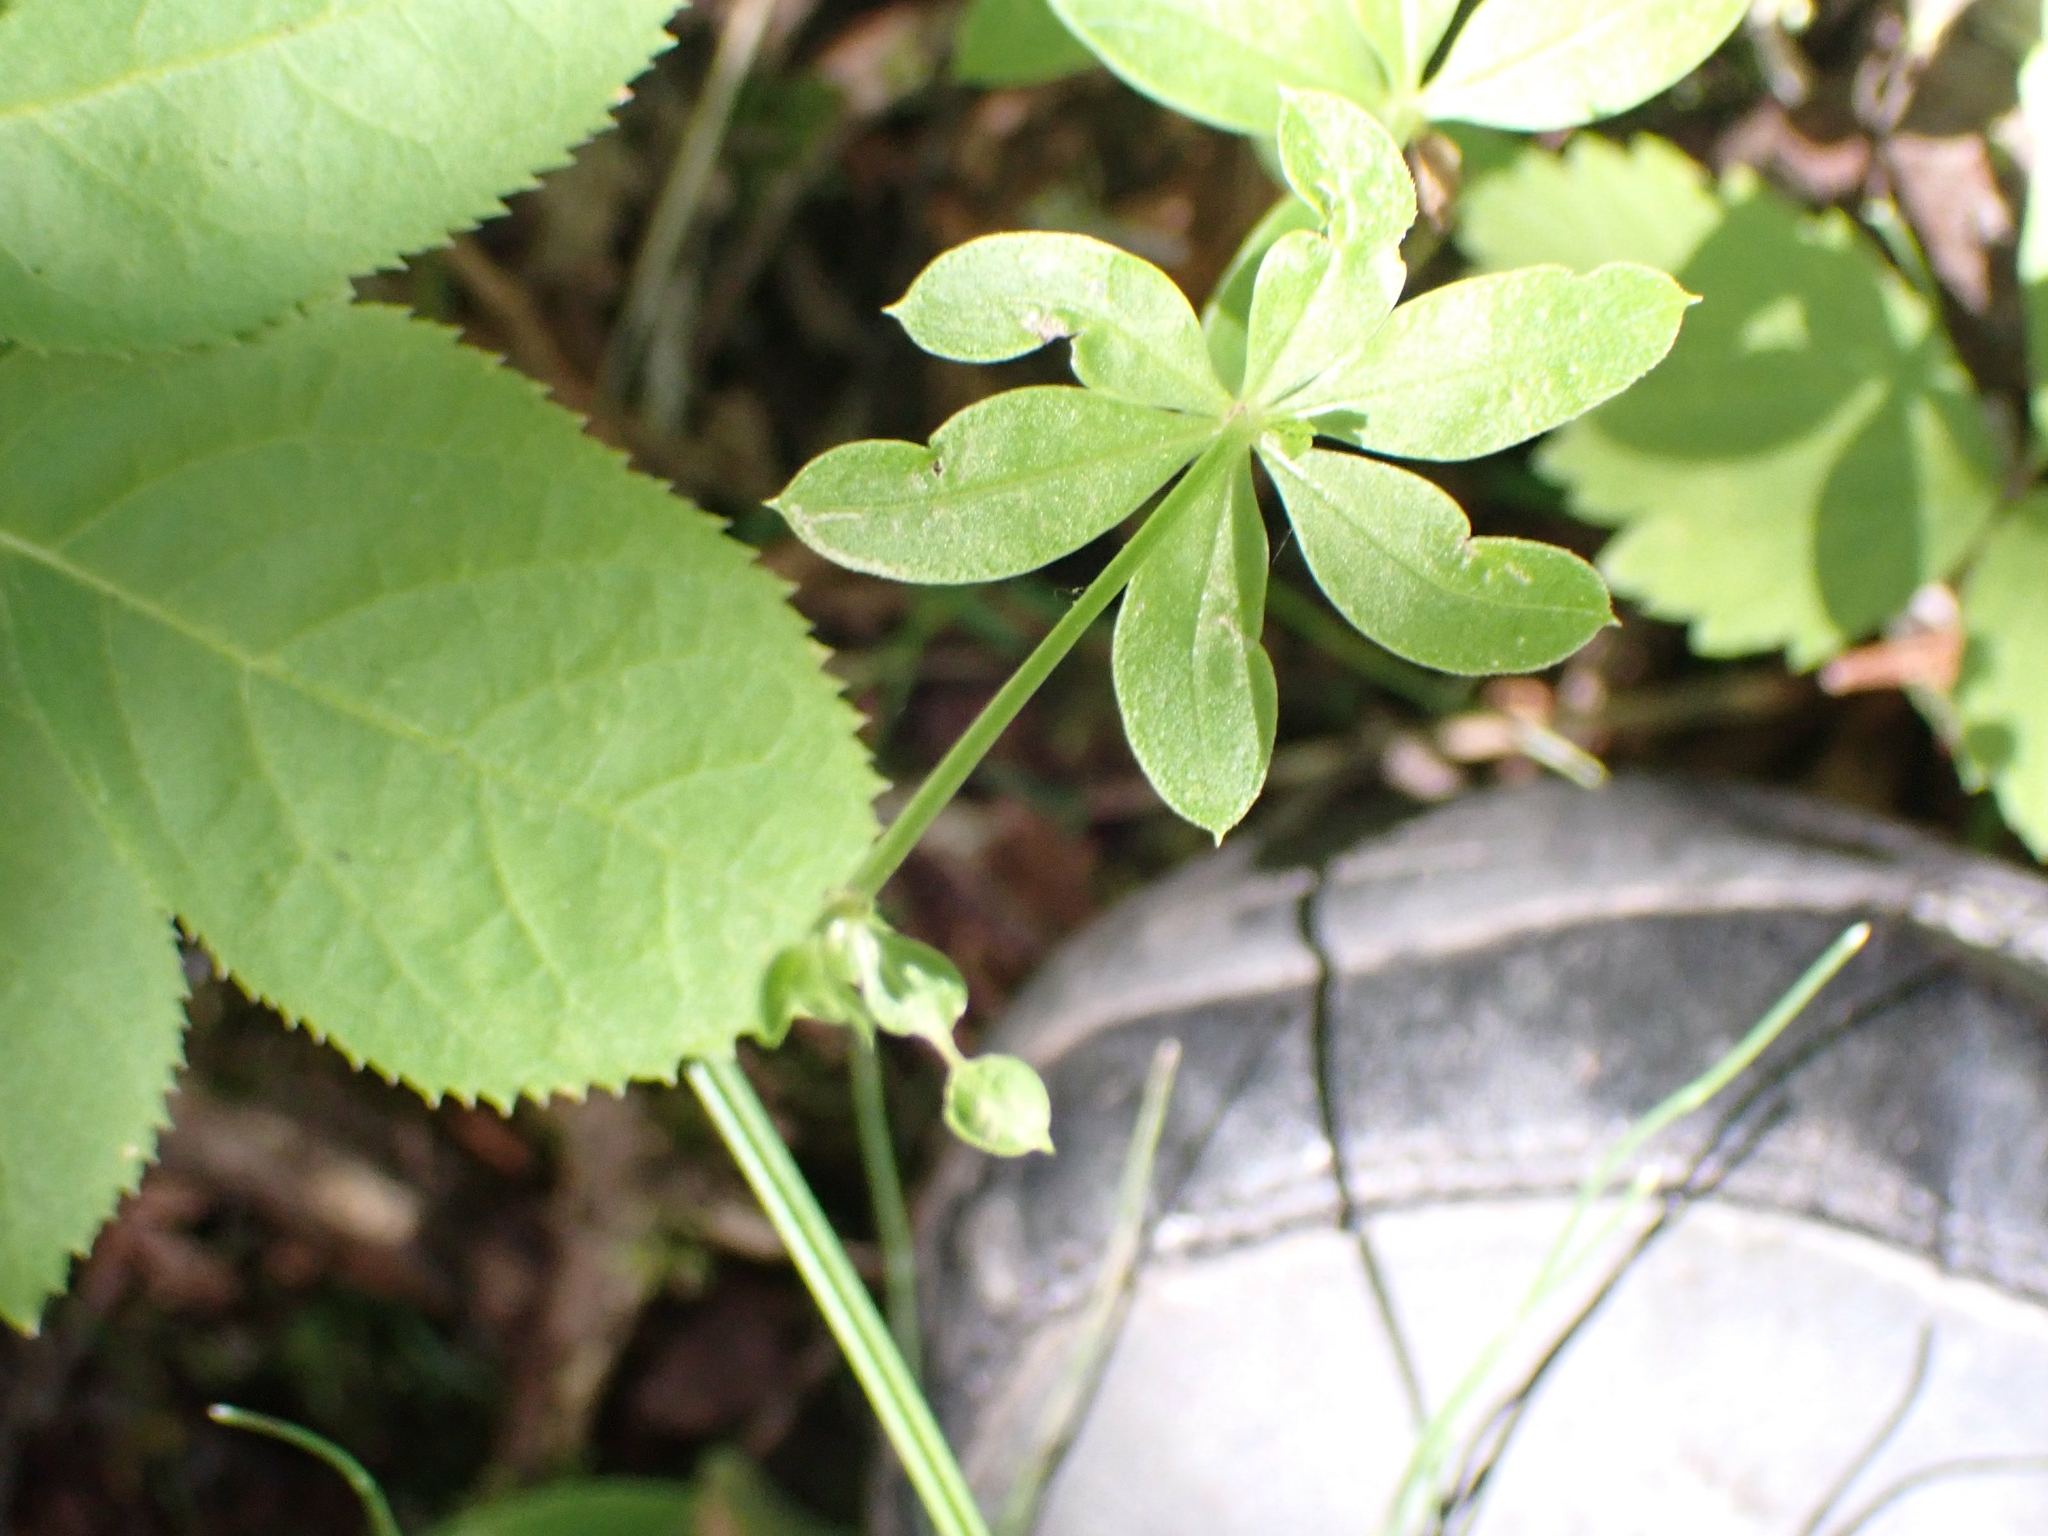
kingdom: Plantae
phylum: Tracheophyta
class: Magnoliopsida
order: Gentianales
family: Rubiaceae
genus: Galium
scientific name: Galium triflorum
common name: Fragrant bedstraw
